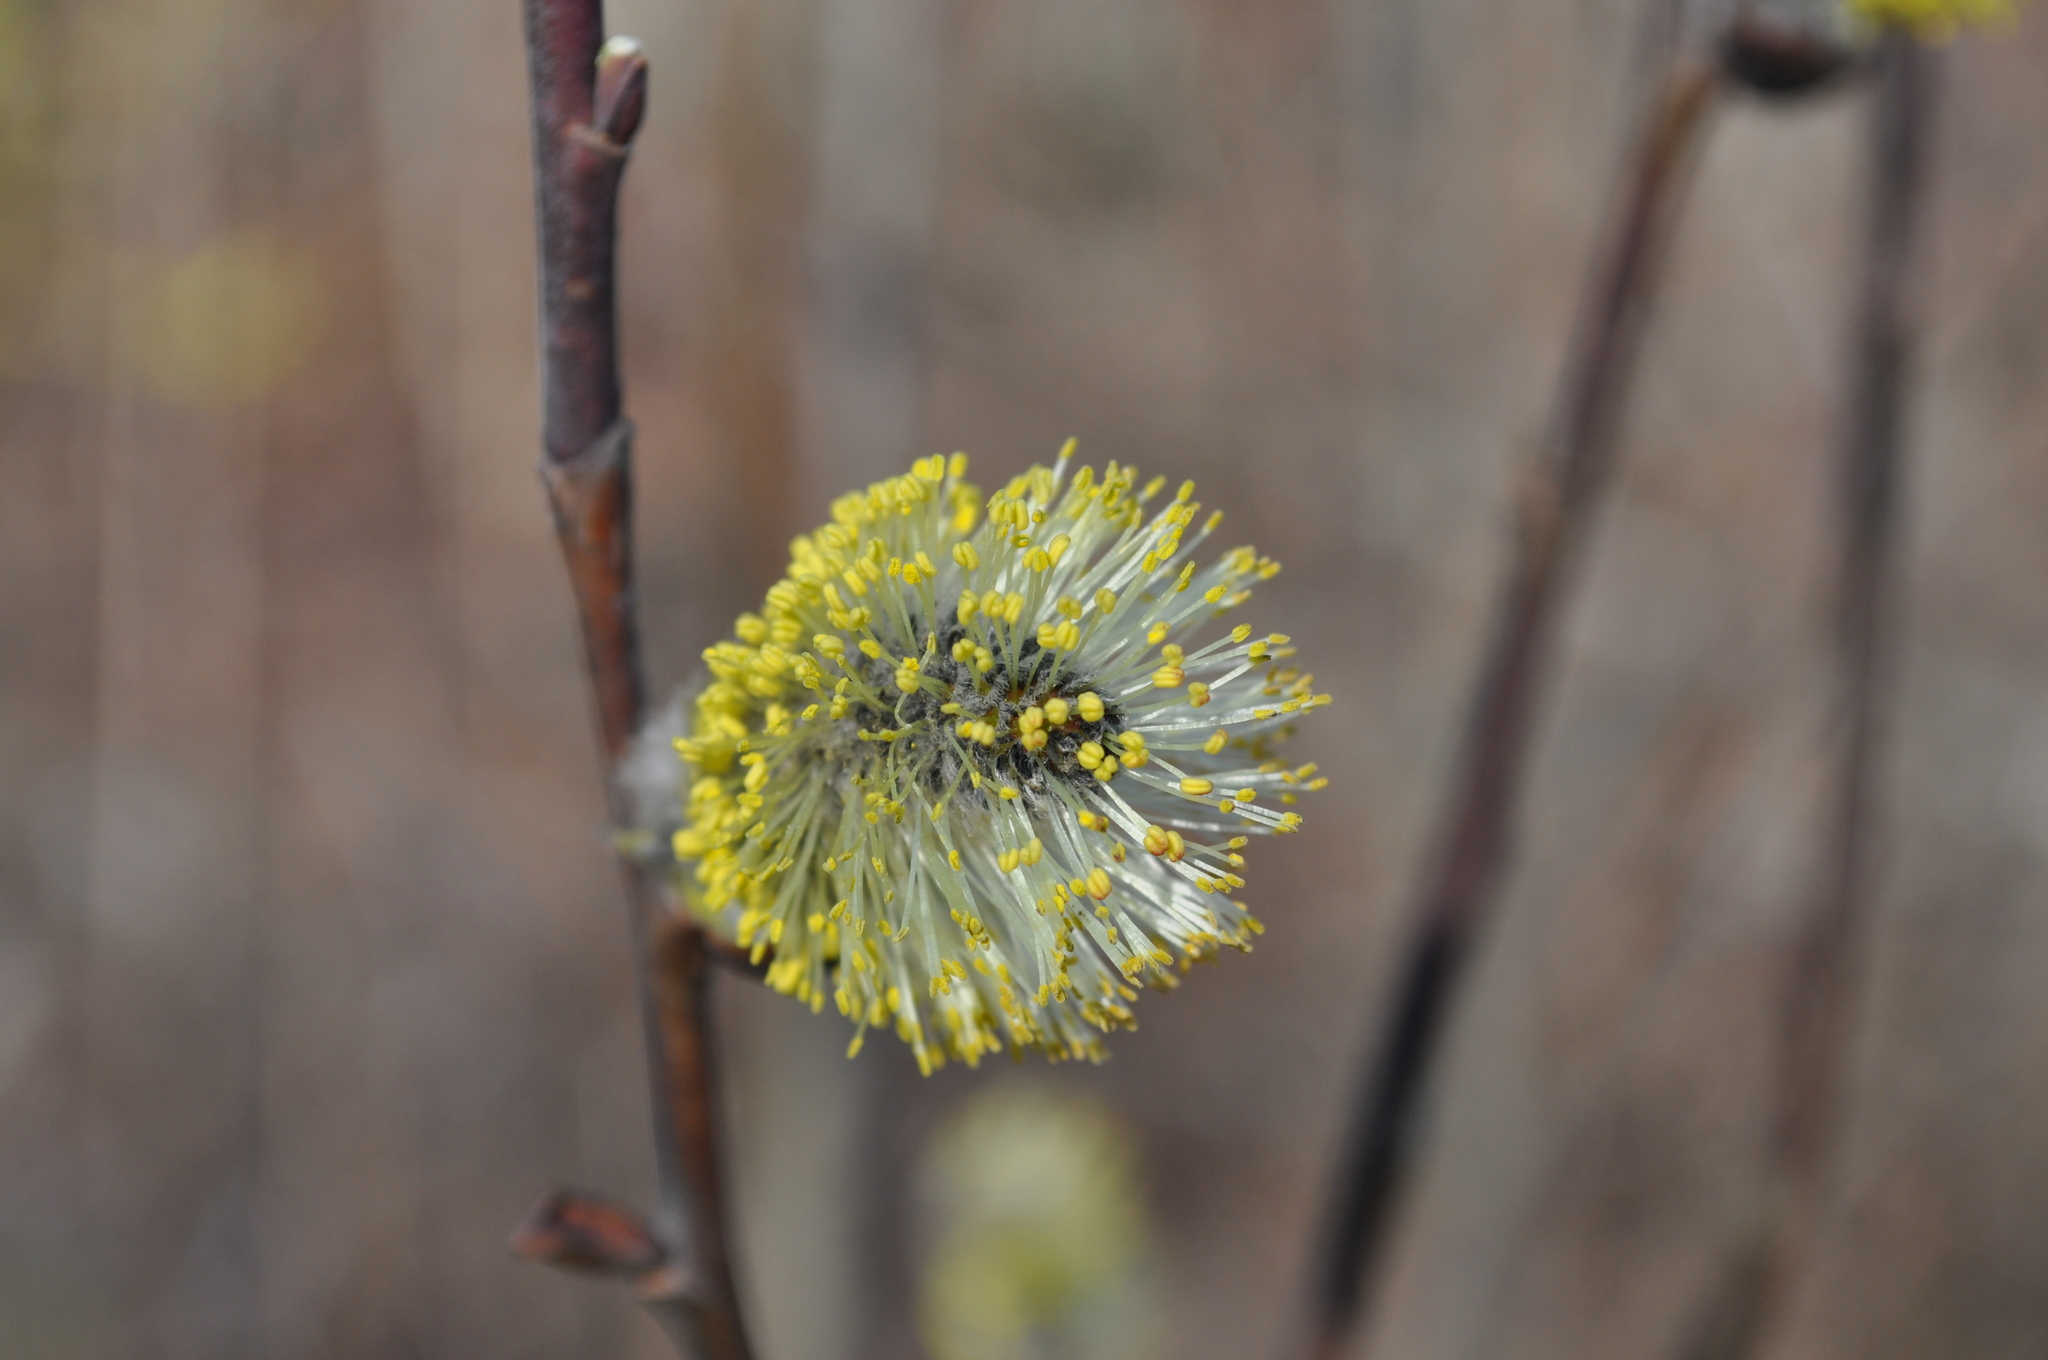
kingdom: Plantae
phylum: Tracheophyta
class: Magnoliopsida
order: Malpighiales
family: Salicaceae
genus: Salix
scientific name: Salix caprea
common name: Goat willow
